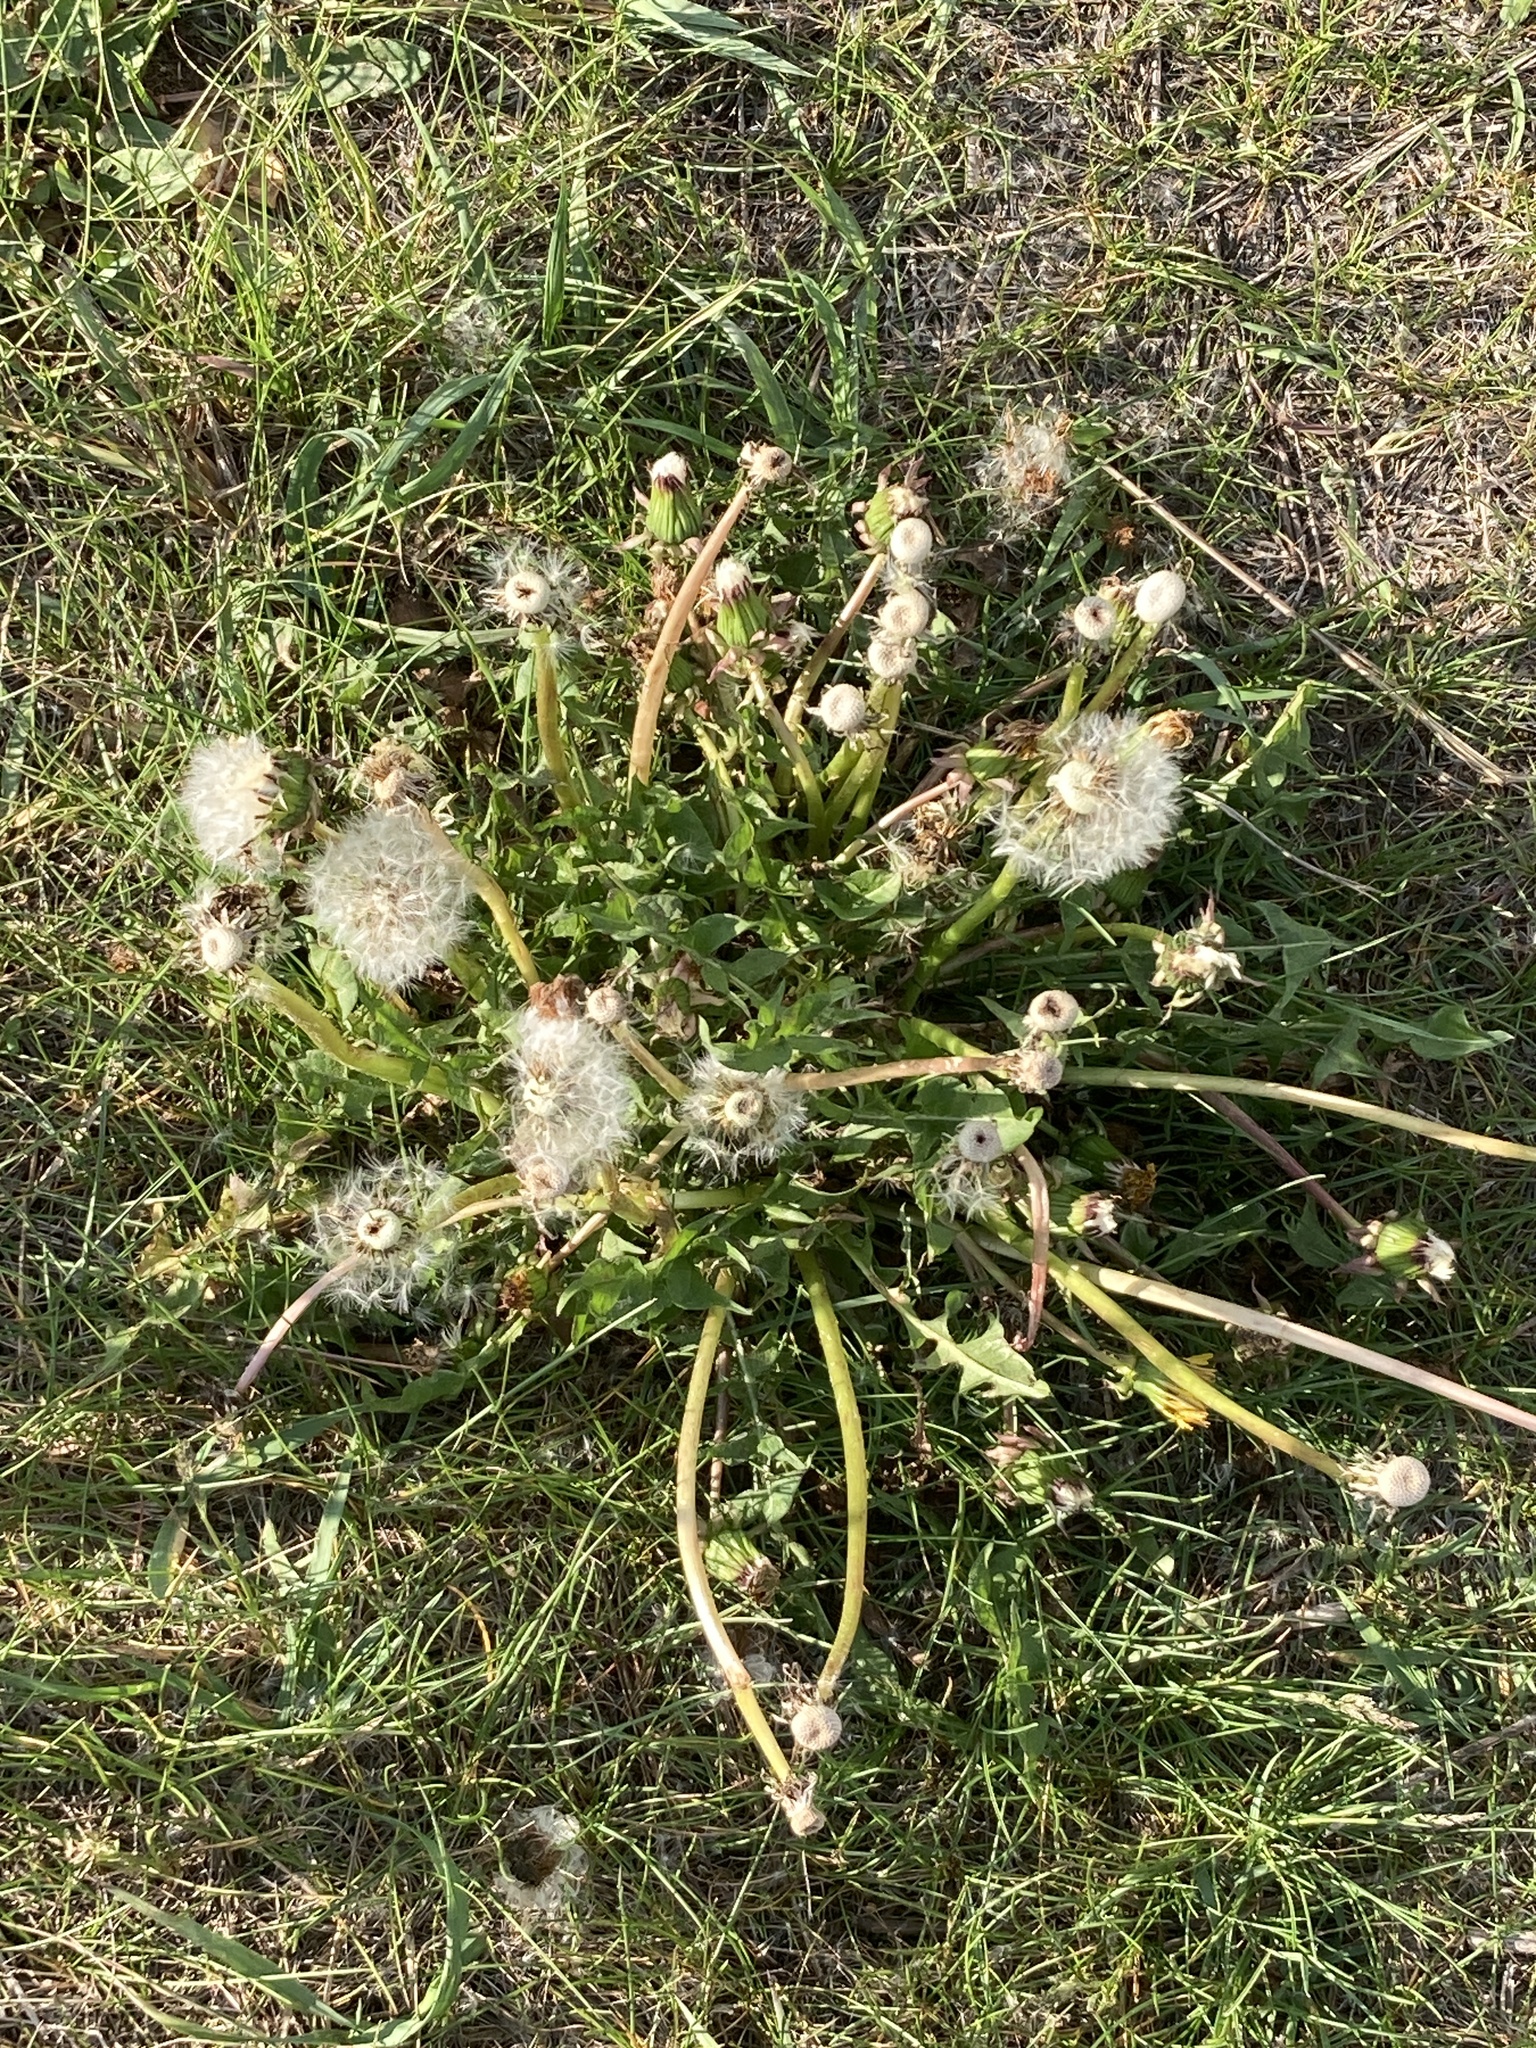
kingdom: Plantae
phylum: Tracheophyta
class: Magnoliopsida
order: Asterales
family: Asteraceae
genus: Taraxacum
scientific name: Taraxacum officinale
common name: Common dandelion
